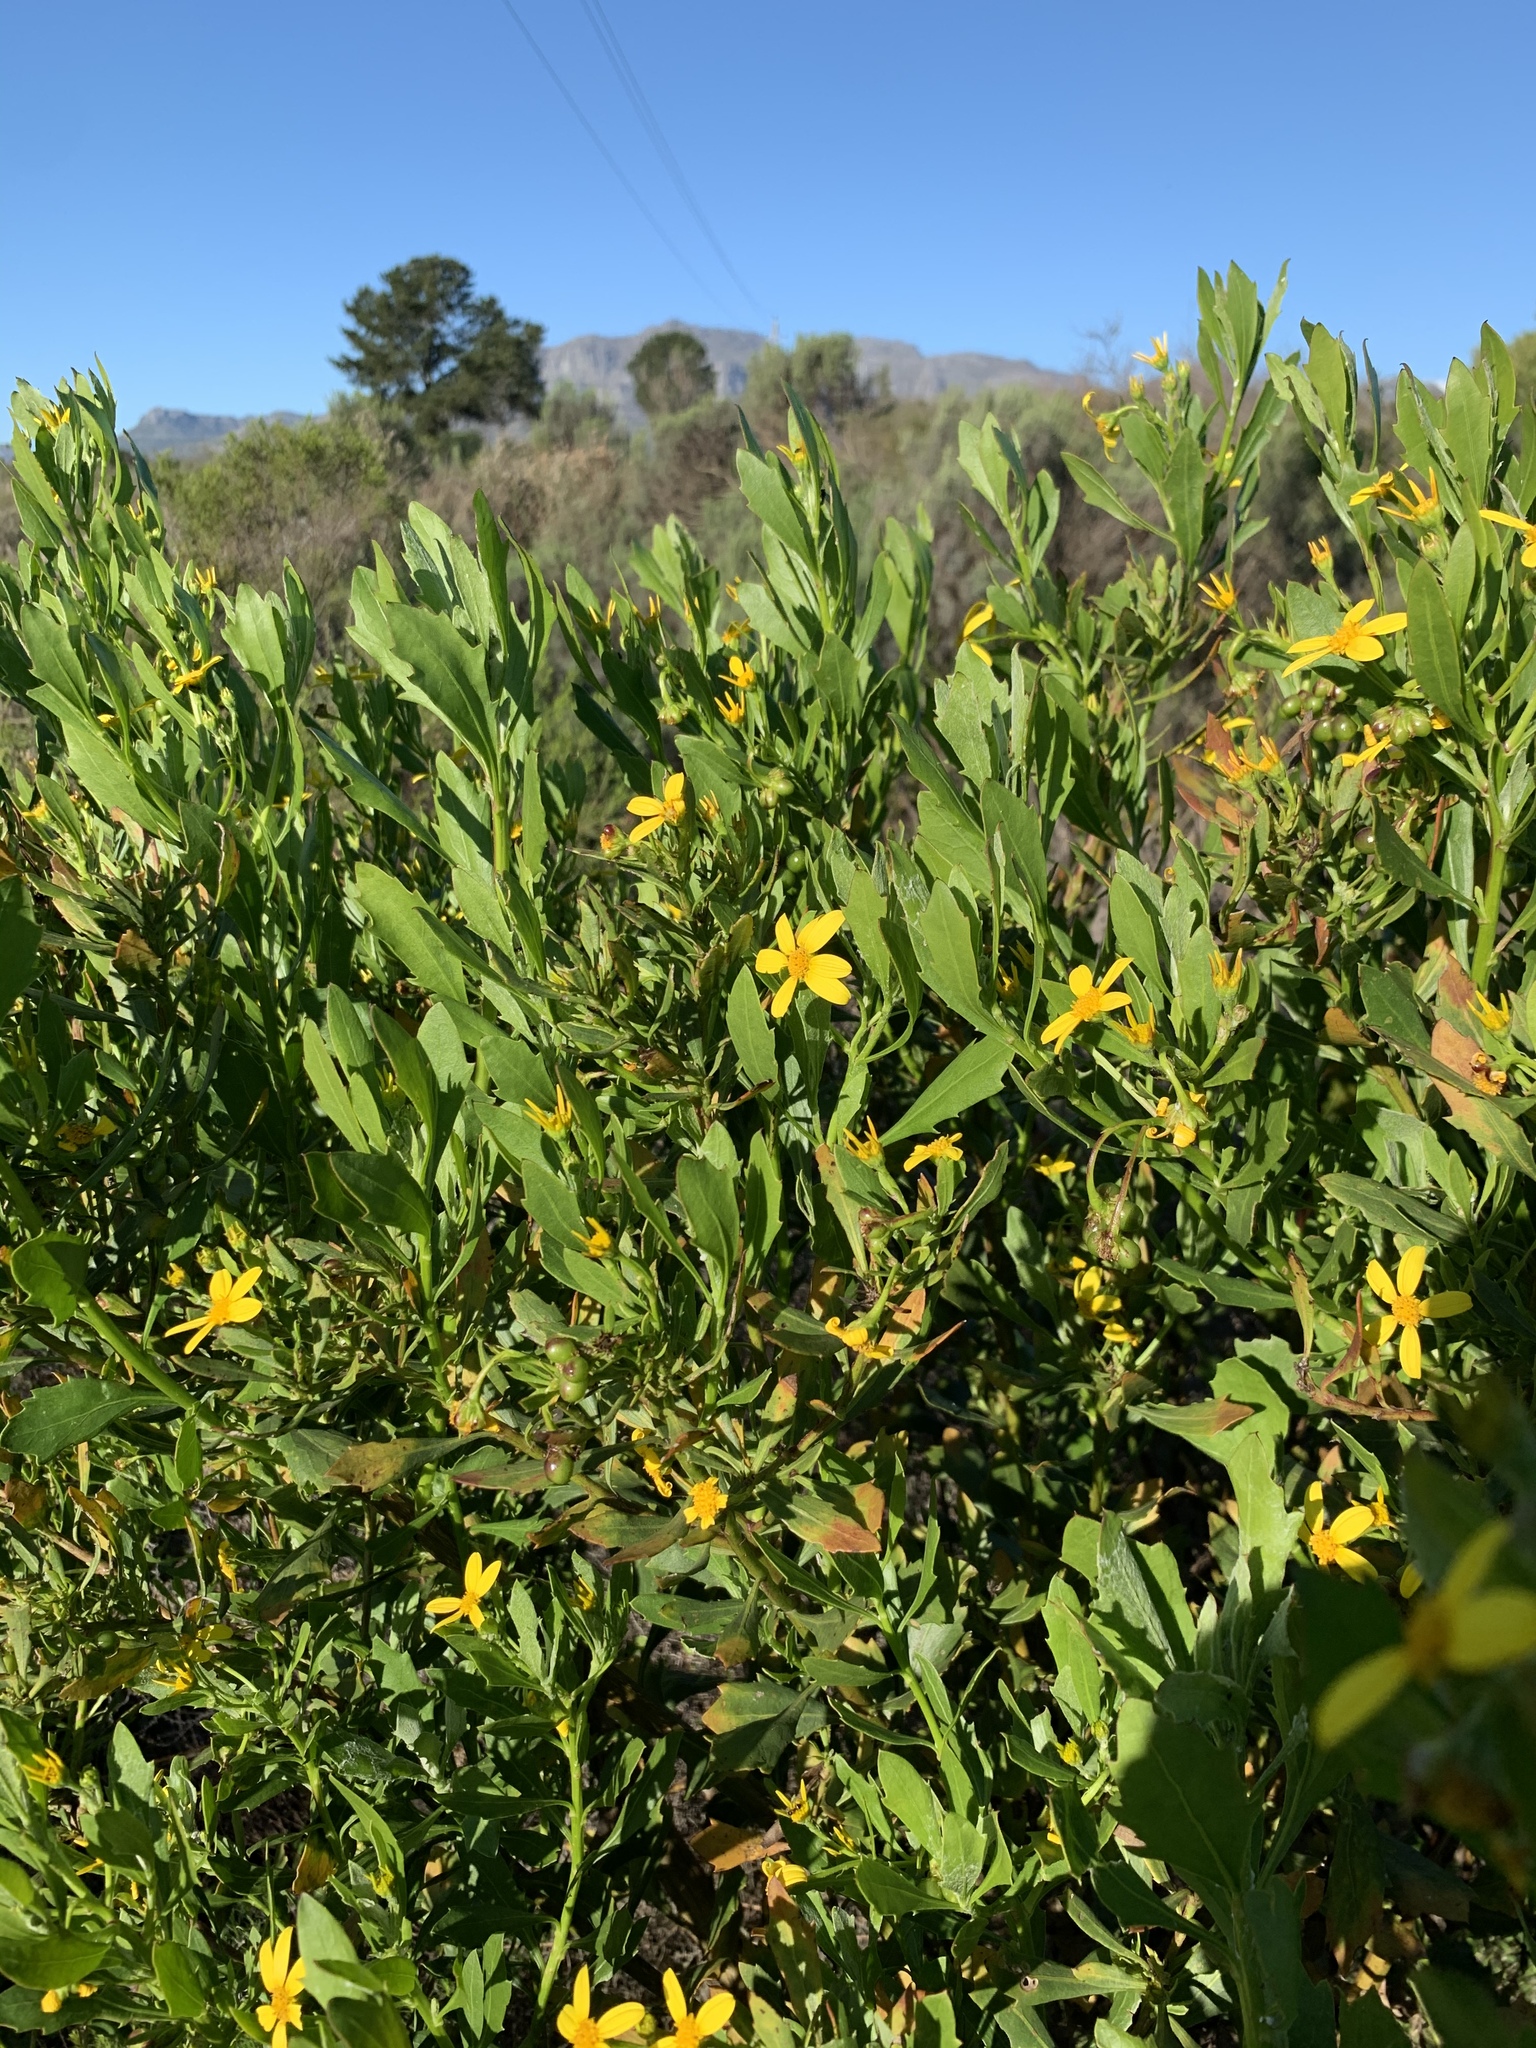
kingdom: Plantae
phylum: Tracheophyta
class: Magnoliopsida
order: Asterales
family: Asteraceae
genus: Osteospermum
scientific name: Osteospermum moniliferum
